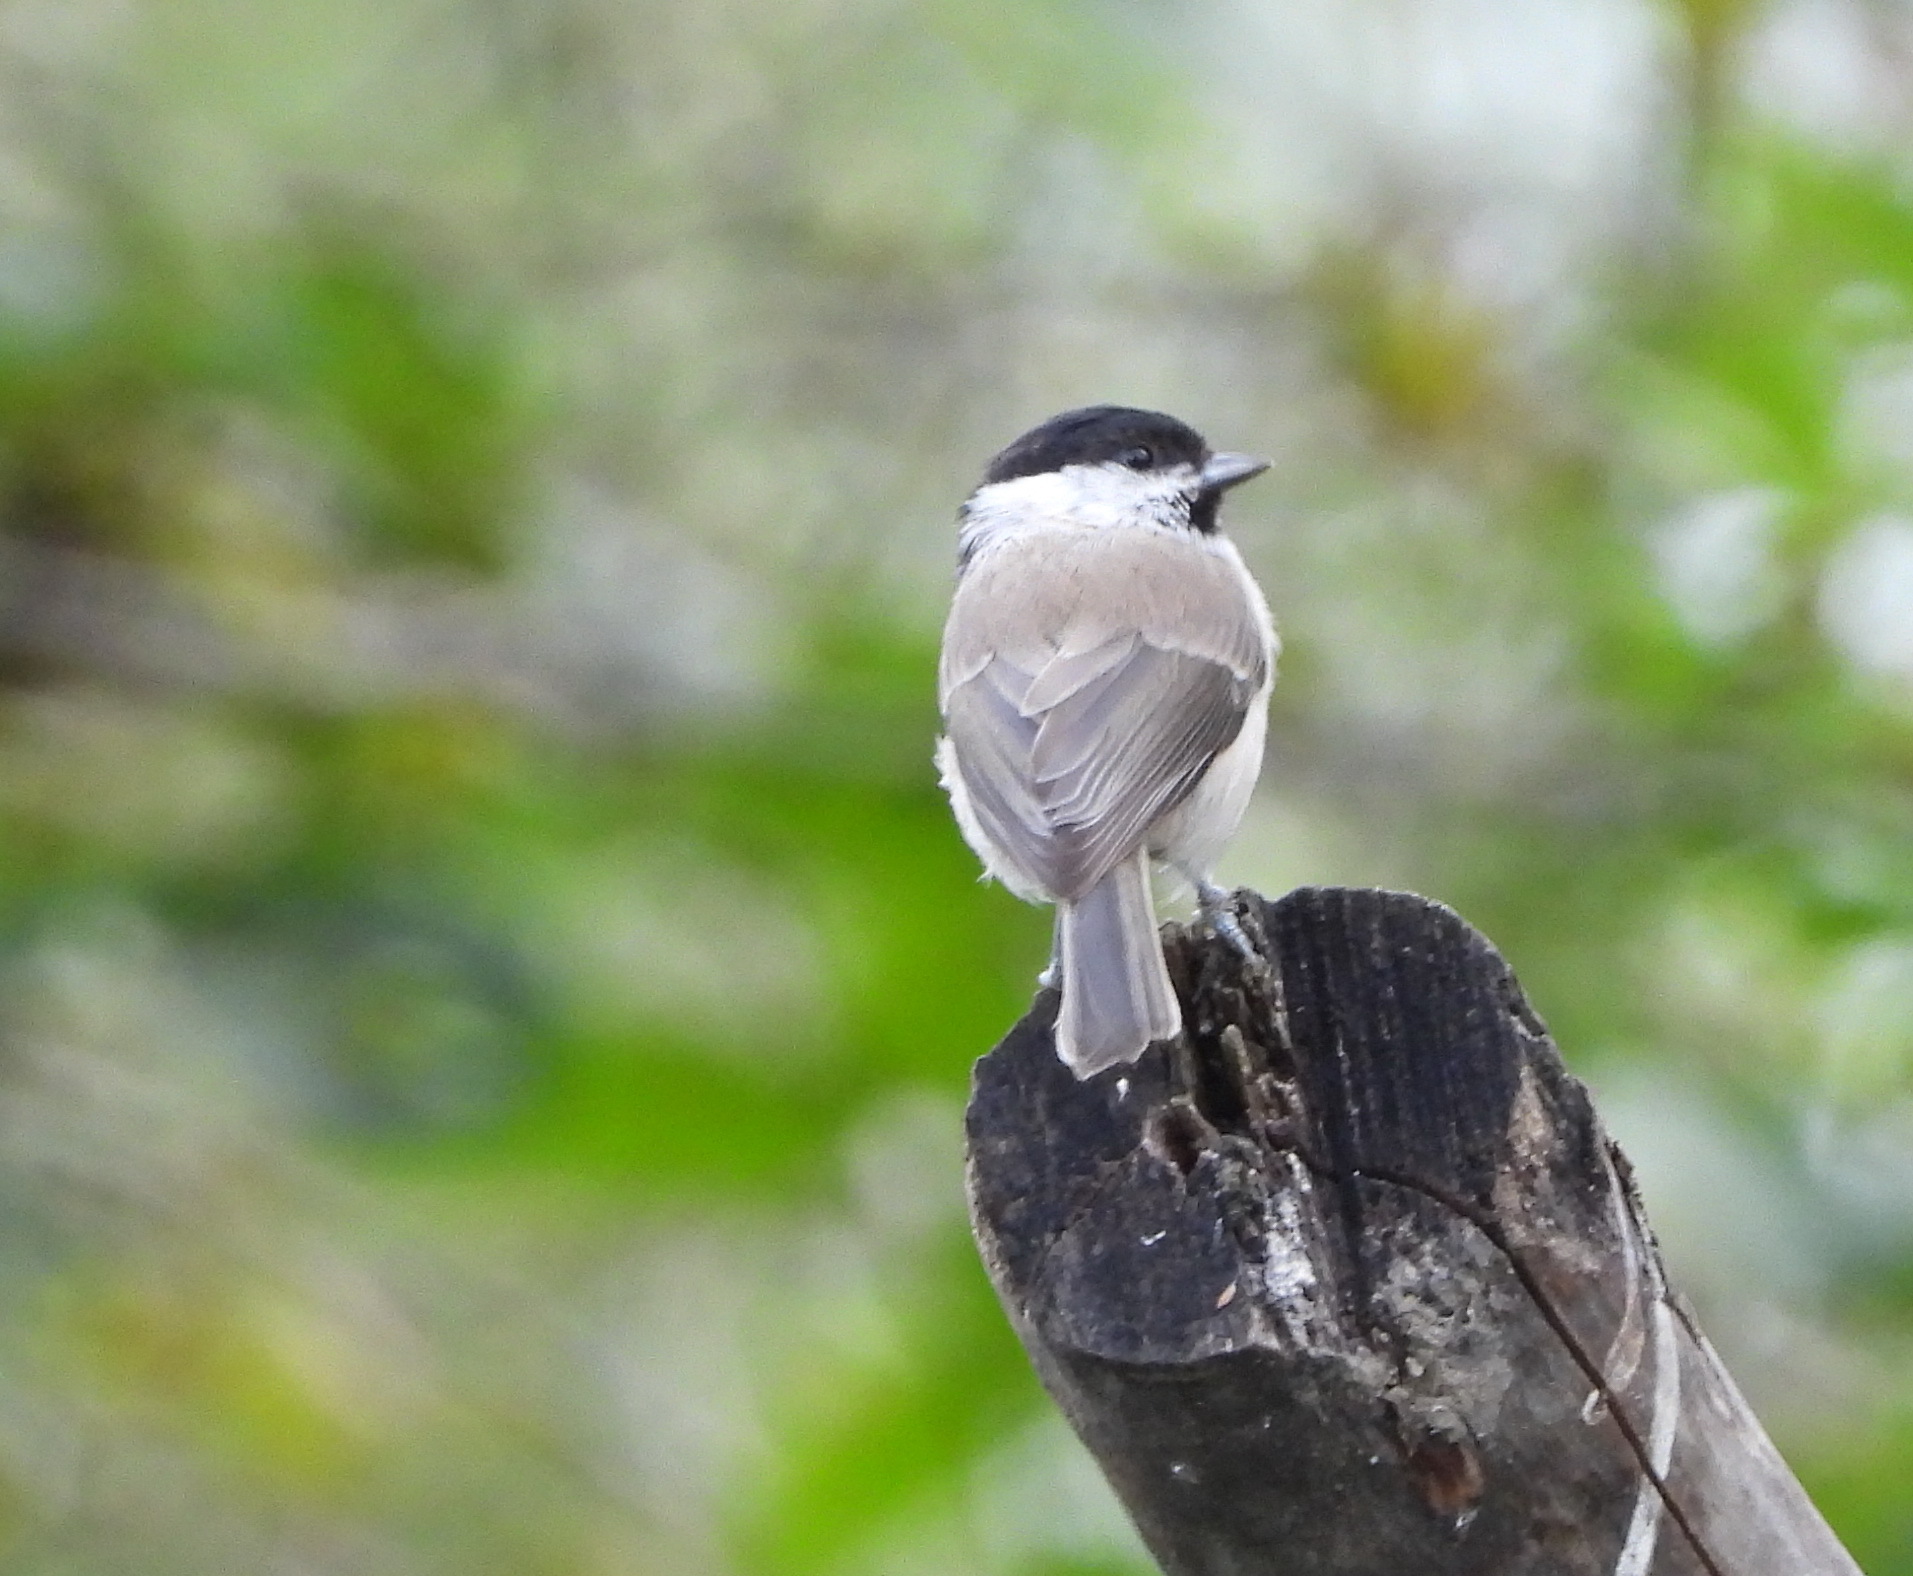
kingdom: Animalia
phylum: Chordata
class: Aves
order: Passeriformes
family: Paridae
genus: Poecile
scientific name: Poecile palustris
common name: Marsh tit
